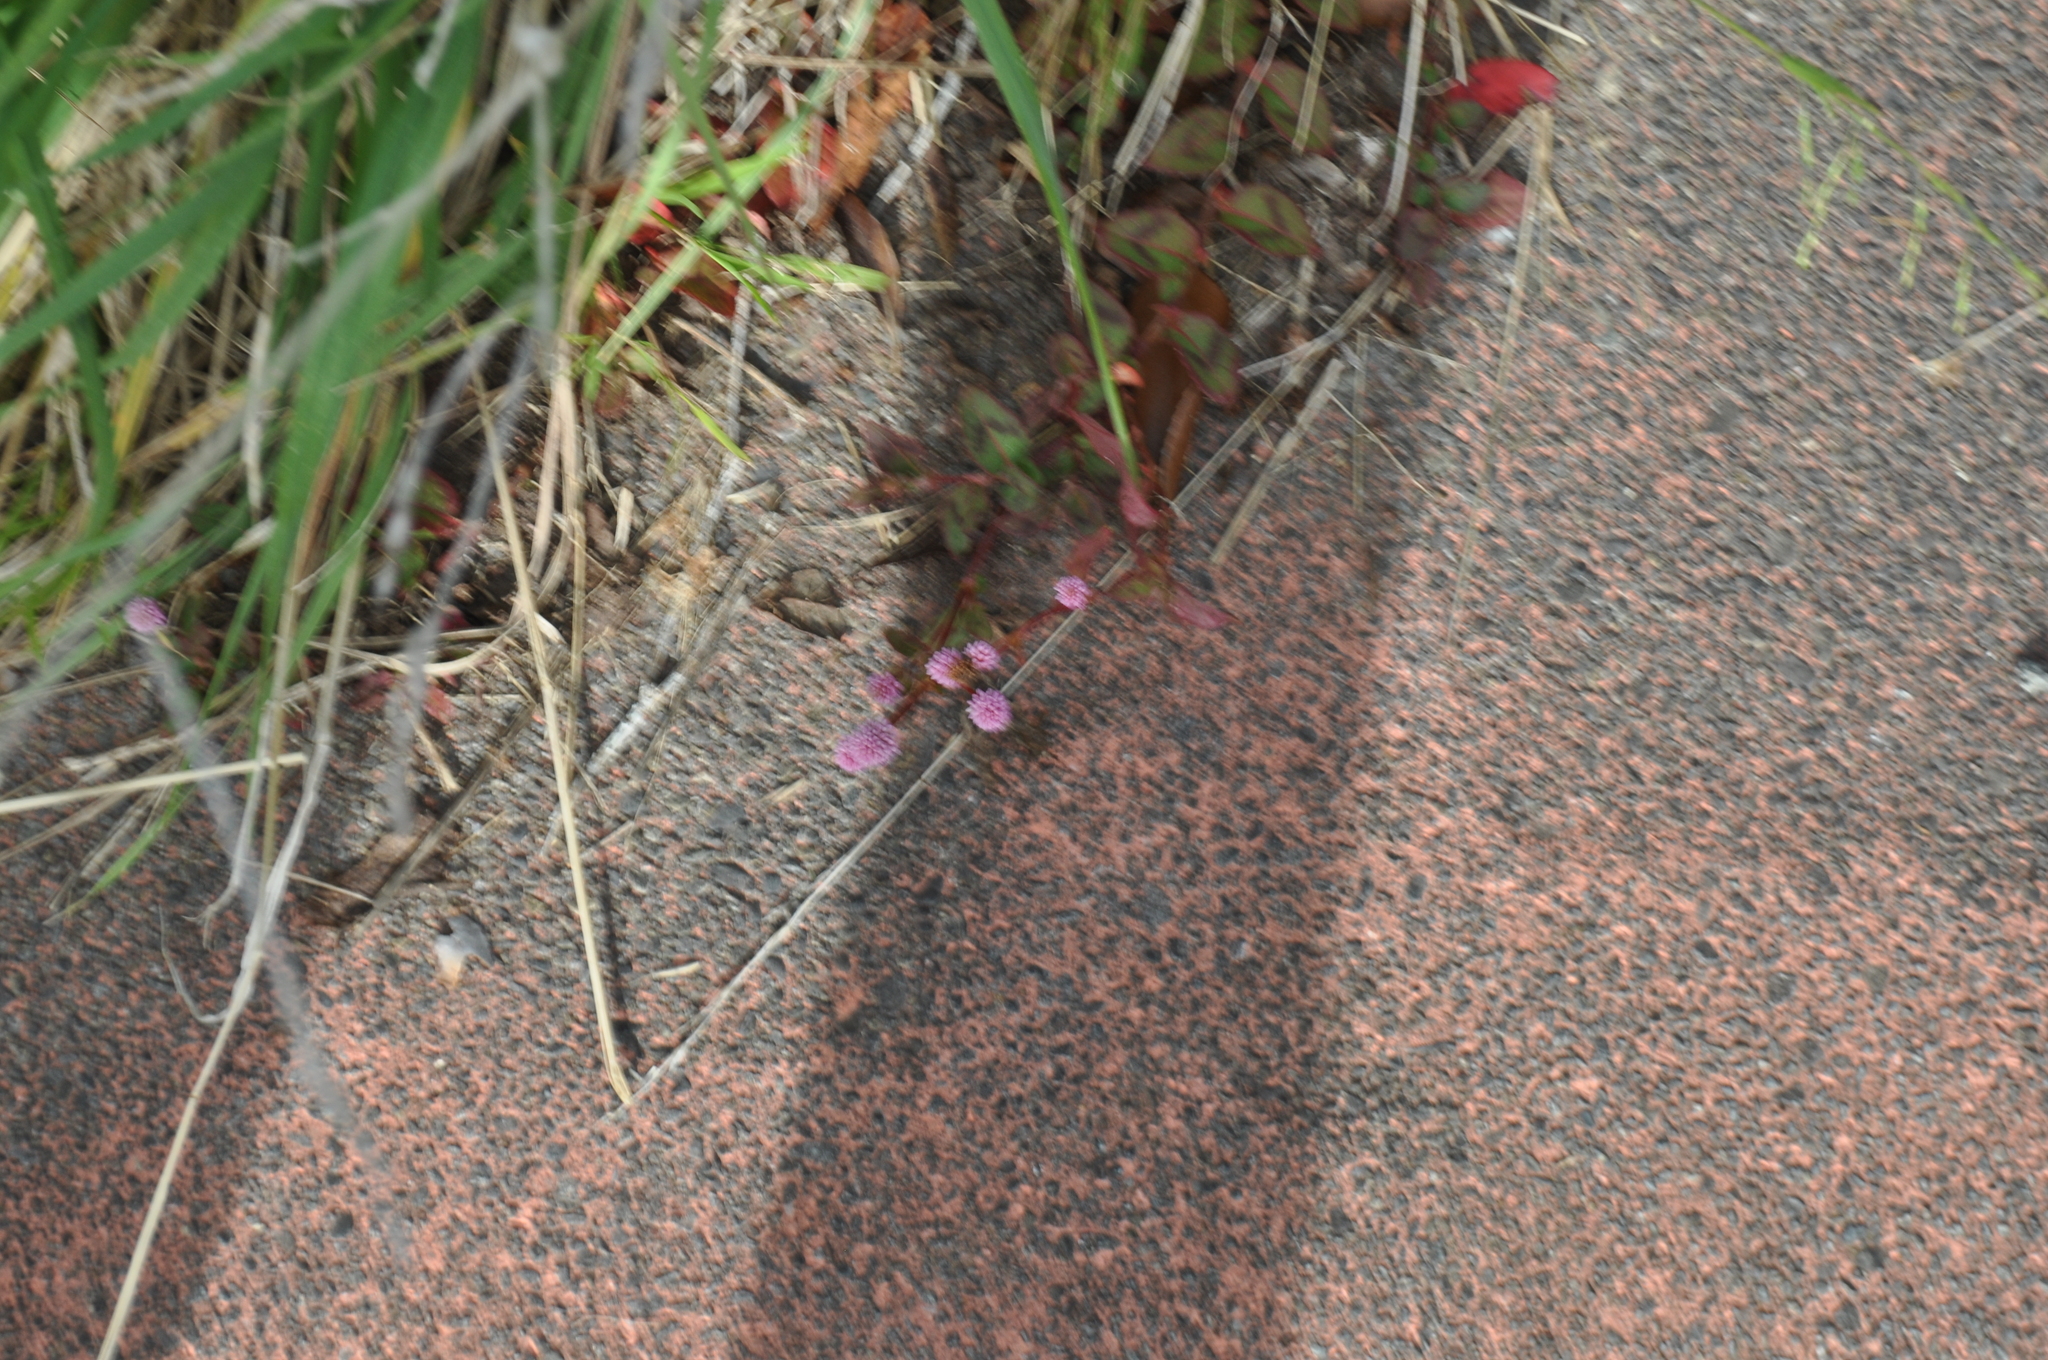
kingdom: Plantae
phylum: Tracheophyta
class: Magnoliopsida
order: Caryophyllales
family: Polygonaceae
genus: Persicaria
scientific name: Persicaria capitata
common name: Pinkhead smartweed
